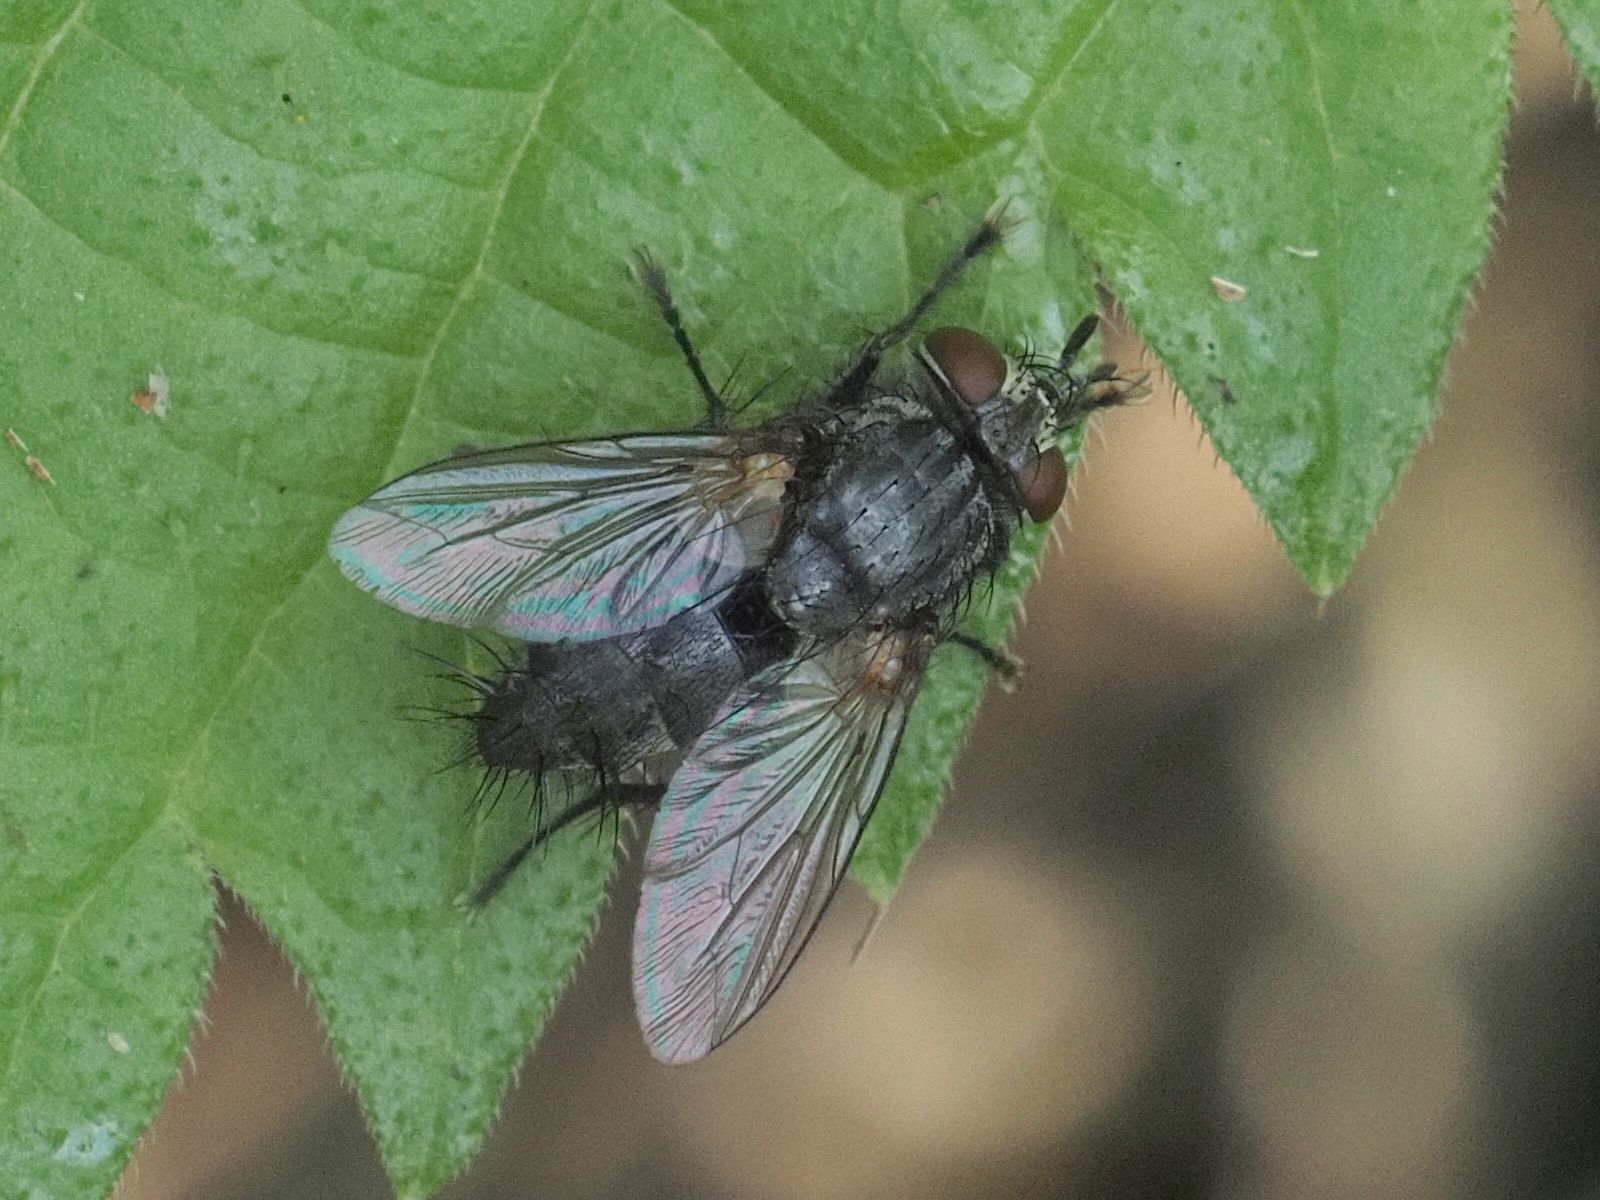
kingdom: Animalia
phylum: Arthropoda
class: Insecta
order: Diptera
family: Tachinidae
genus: Voria
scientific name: Voria ruralis
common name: Parasitic fly
